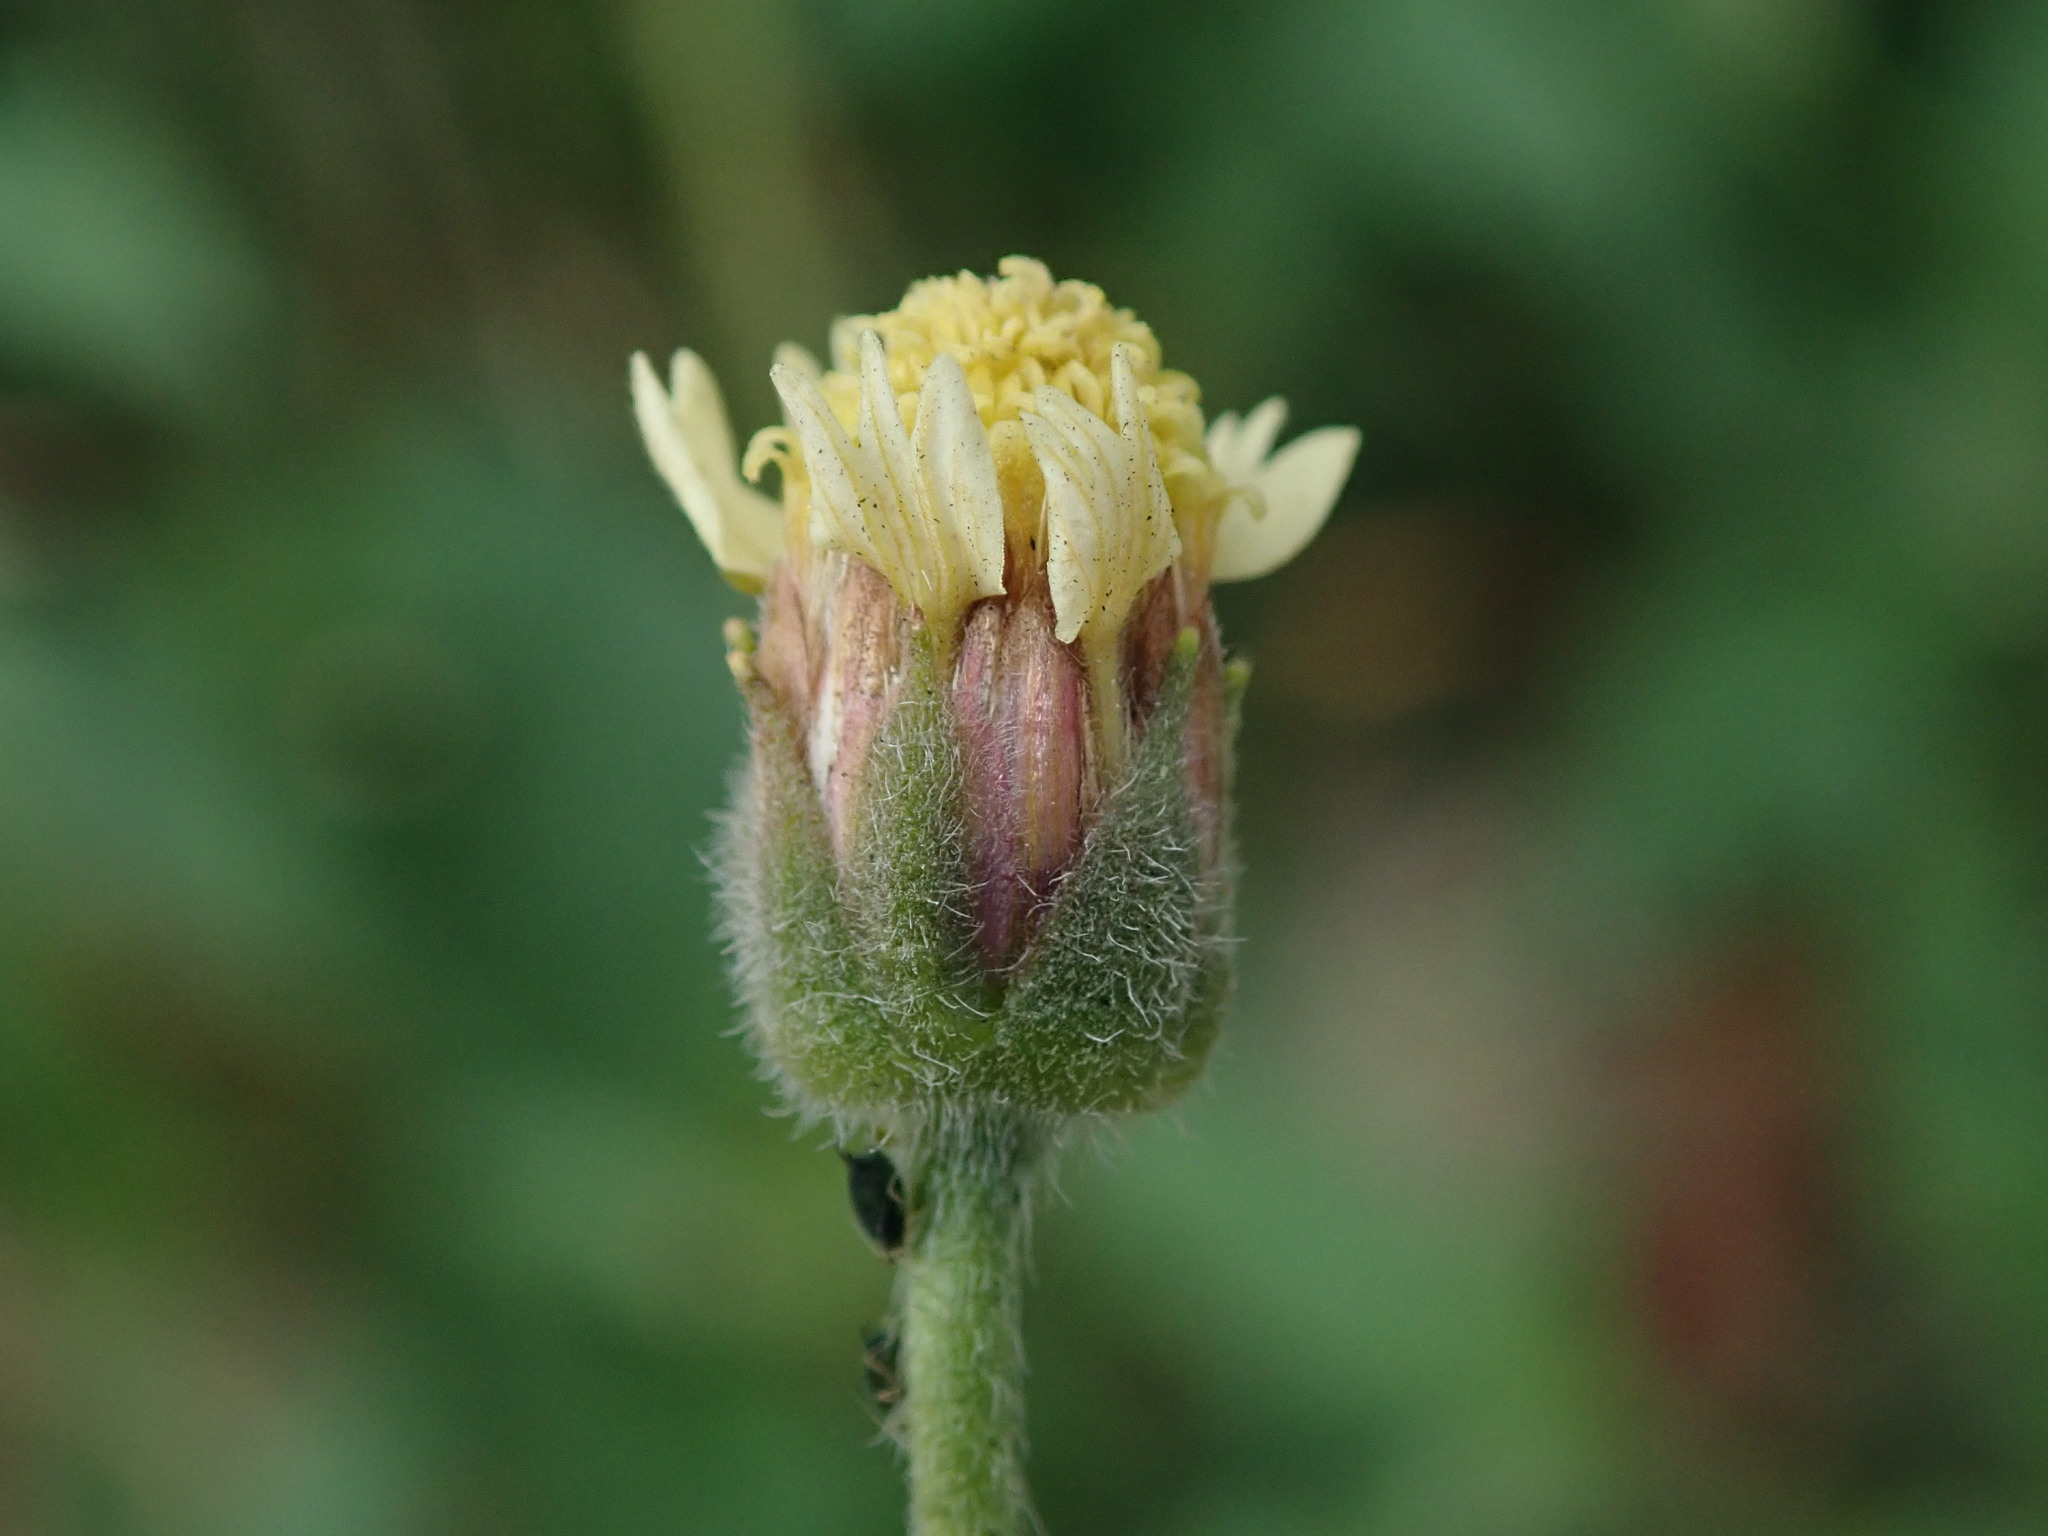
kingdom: Plantae
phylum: Tracheophyta
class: Magnoliopsida
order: Asterales
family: Asteraceae
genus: Tridax
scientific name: Tridax procumbens
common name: Coatbuttons
